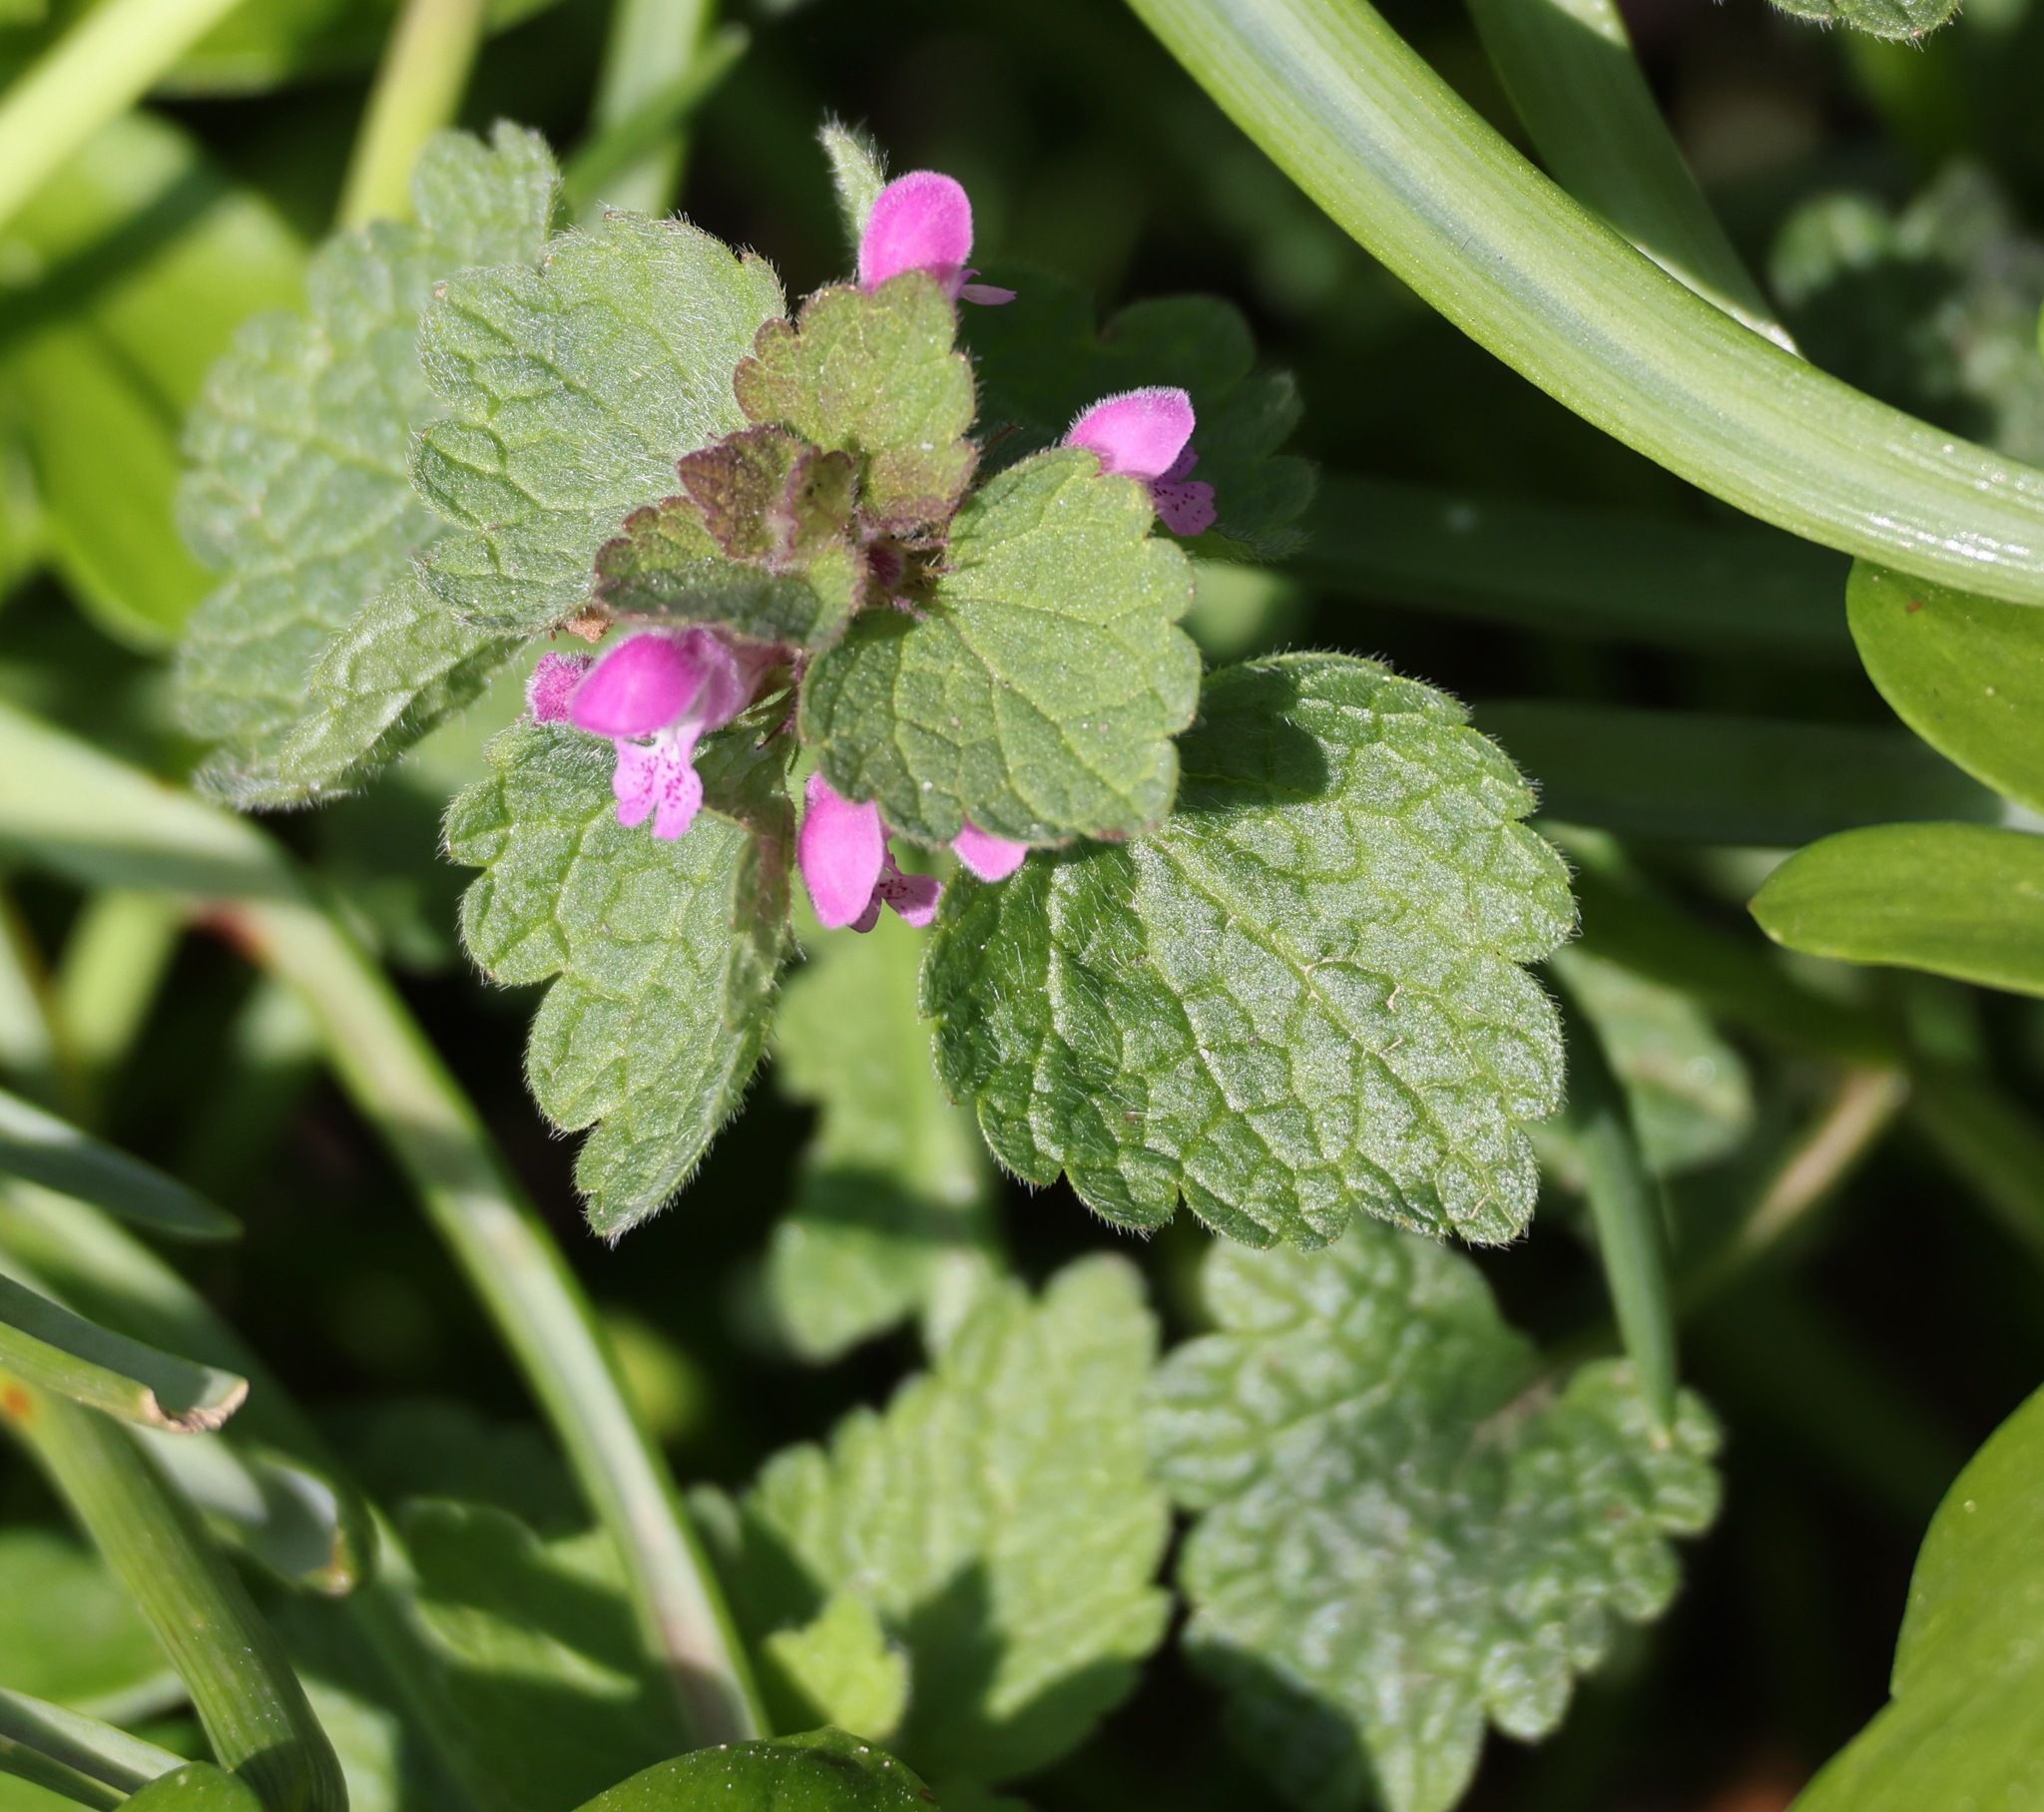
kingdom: Plantae
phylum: Tracheophyta
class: Magnoliopsida
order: Lamiales
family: Lamiaceae
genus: Lamium
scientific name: Lamium purpureum
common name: Red dead-nettle
